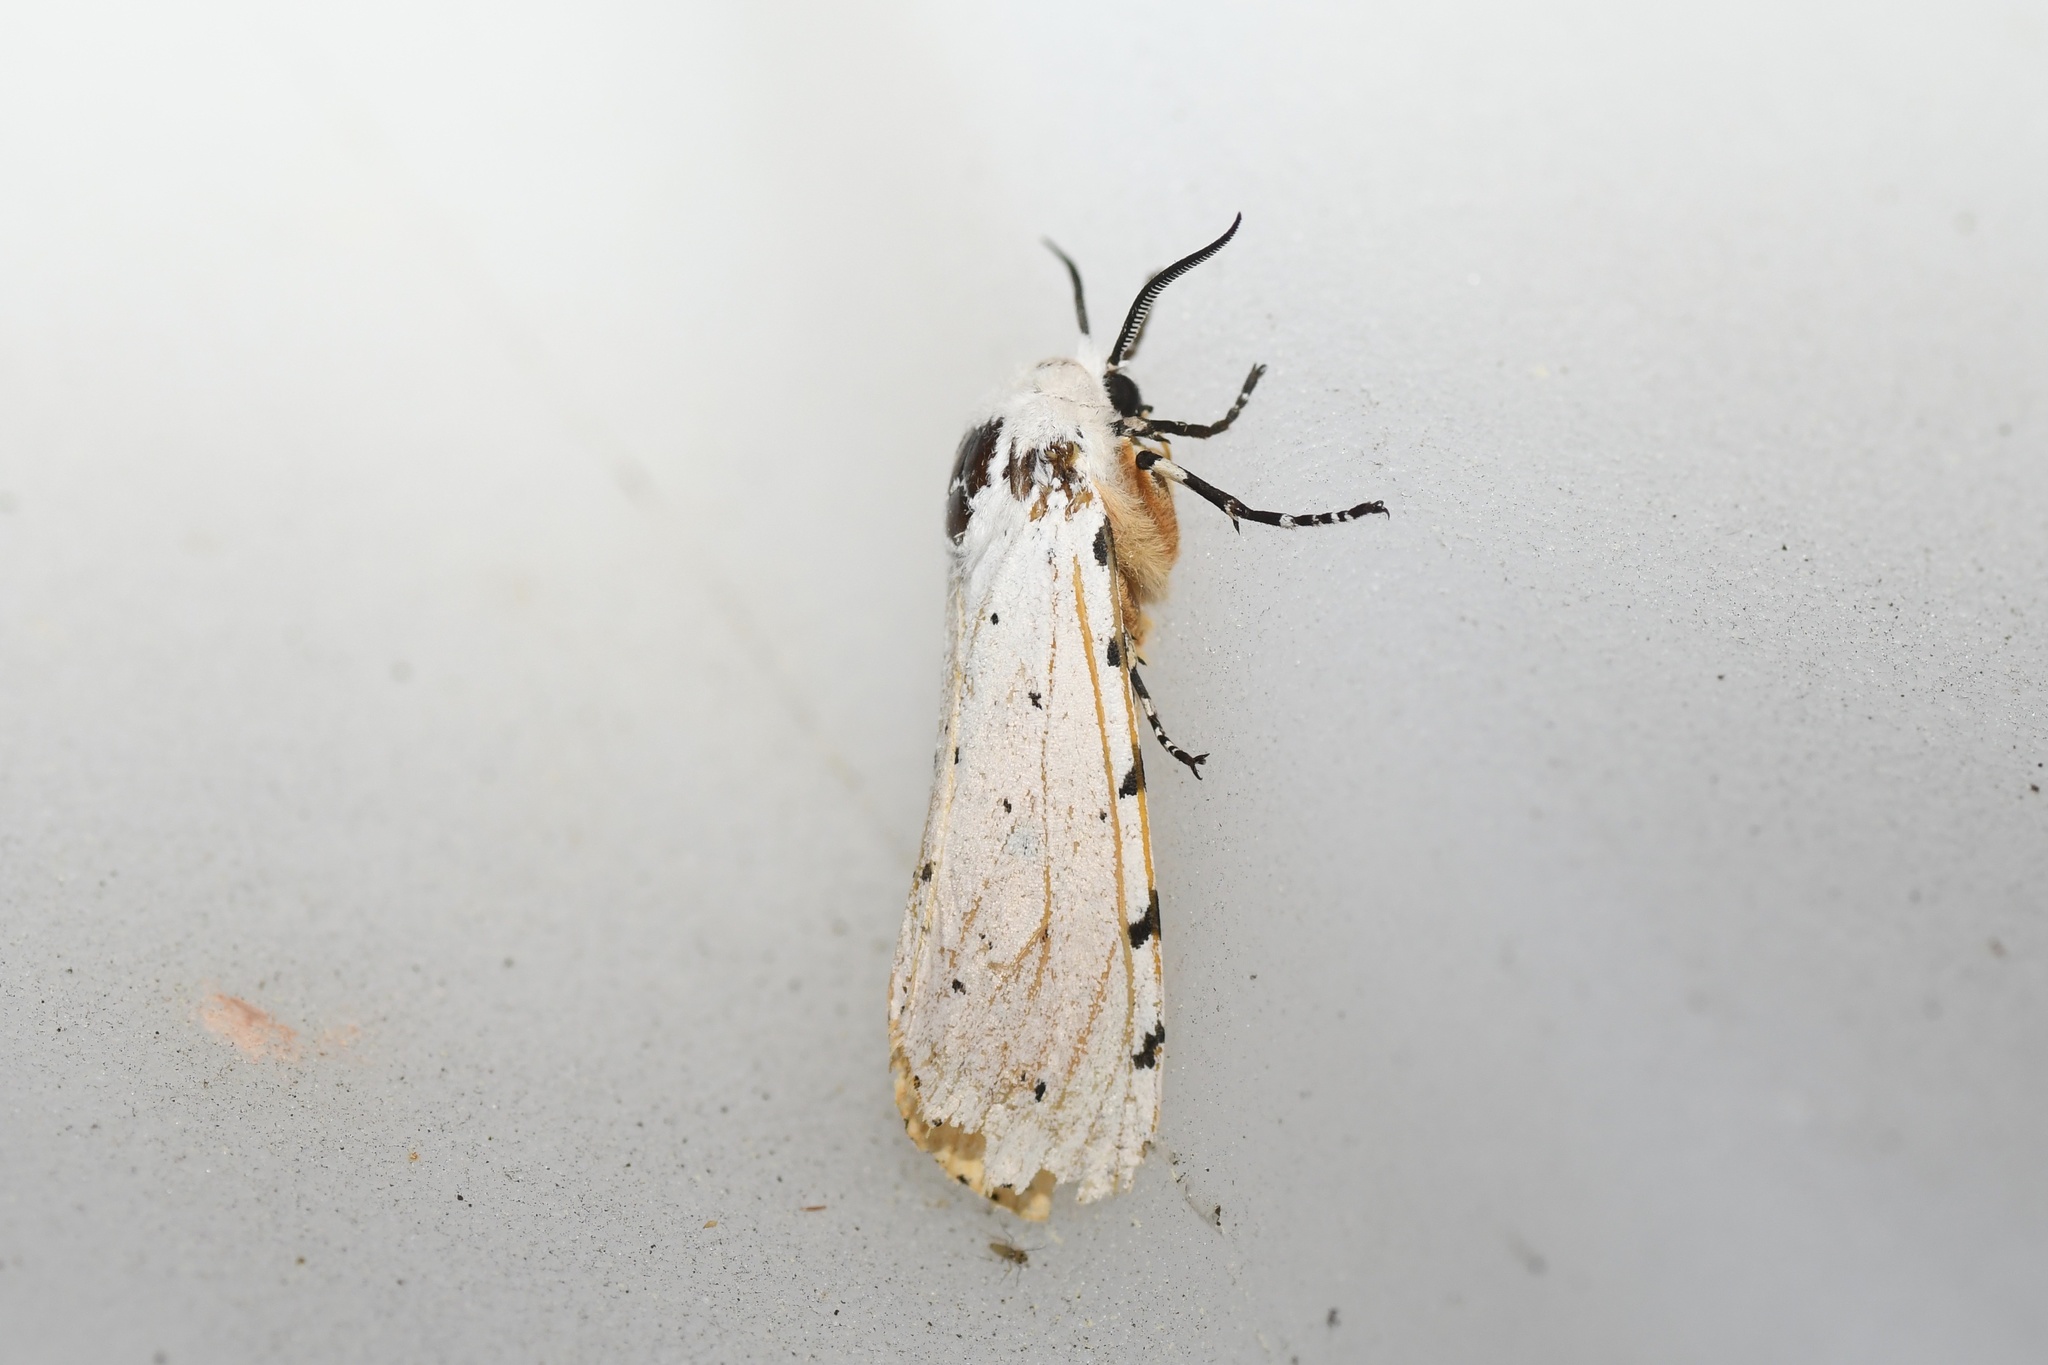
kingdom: Animalia
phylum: Arthropoda
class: Insecta
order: Lepidoptera
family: Erebidae
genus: Estigmene
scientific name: Estigmene acrea
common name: Salt marsh moth
